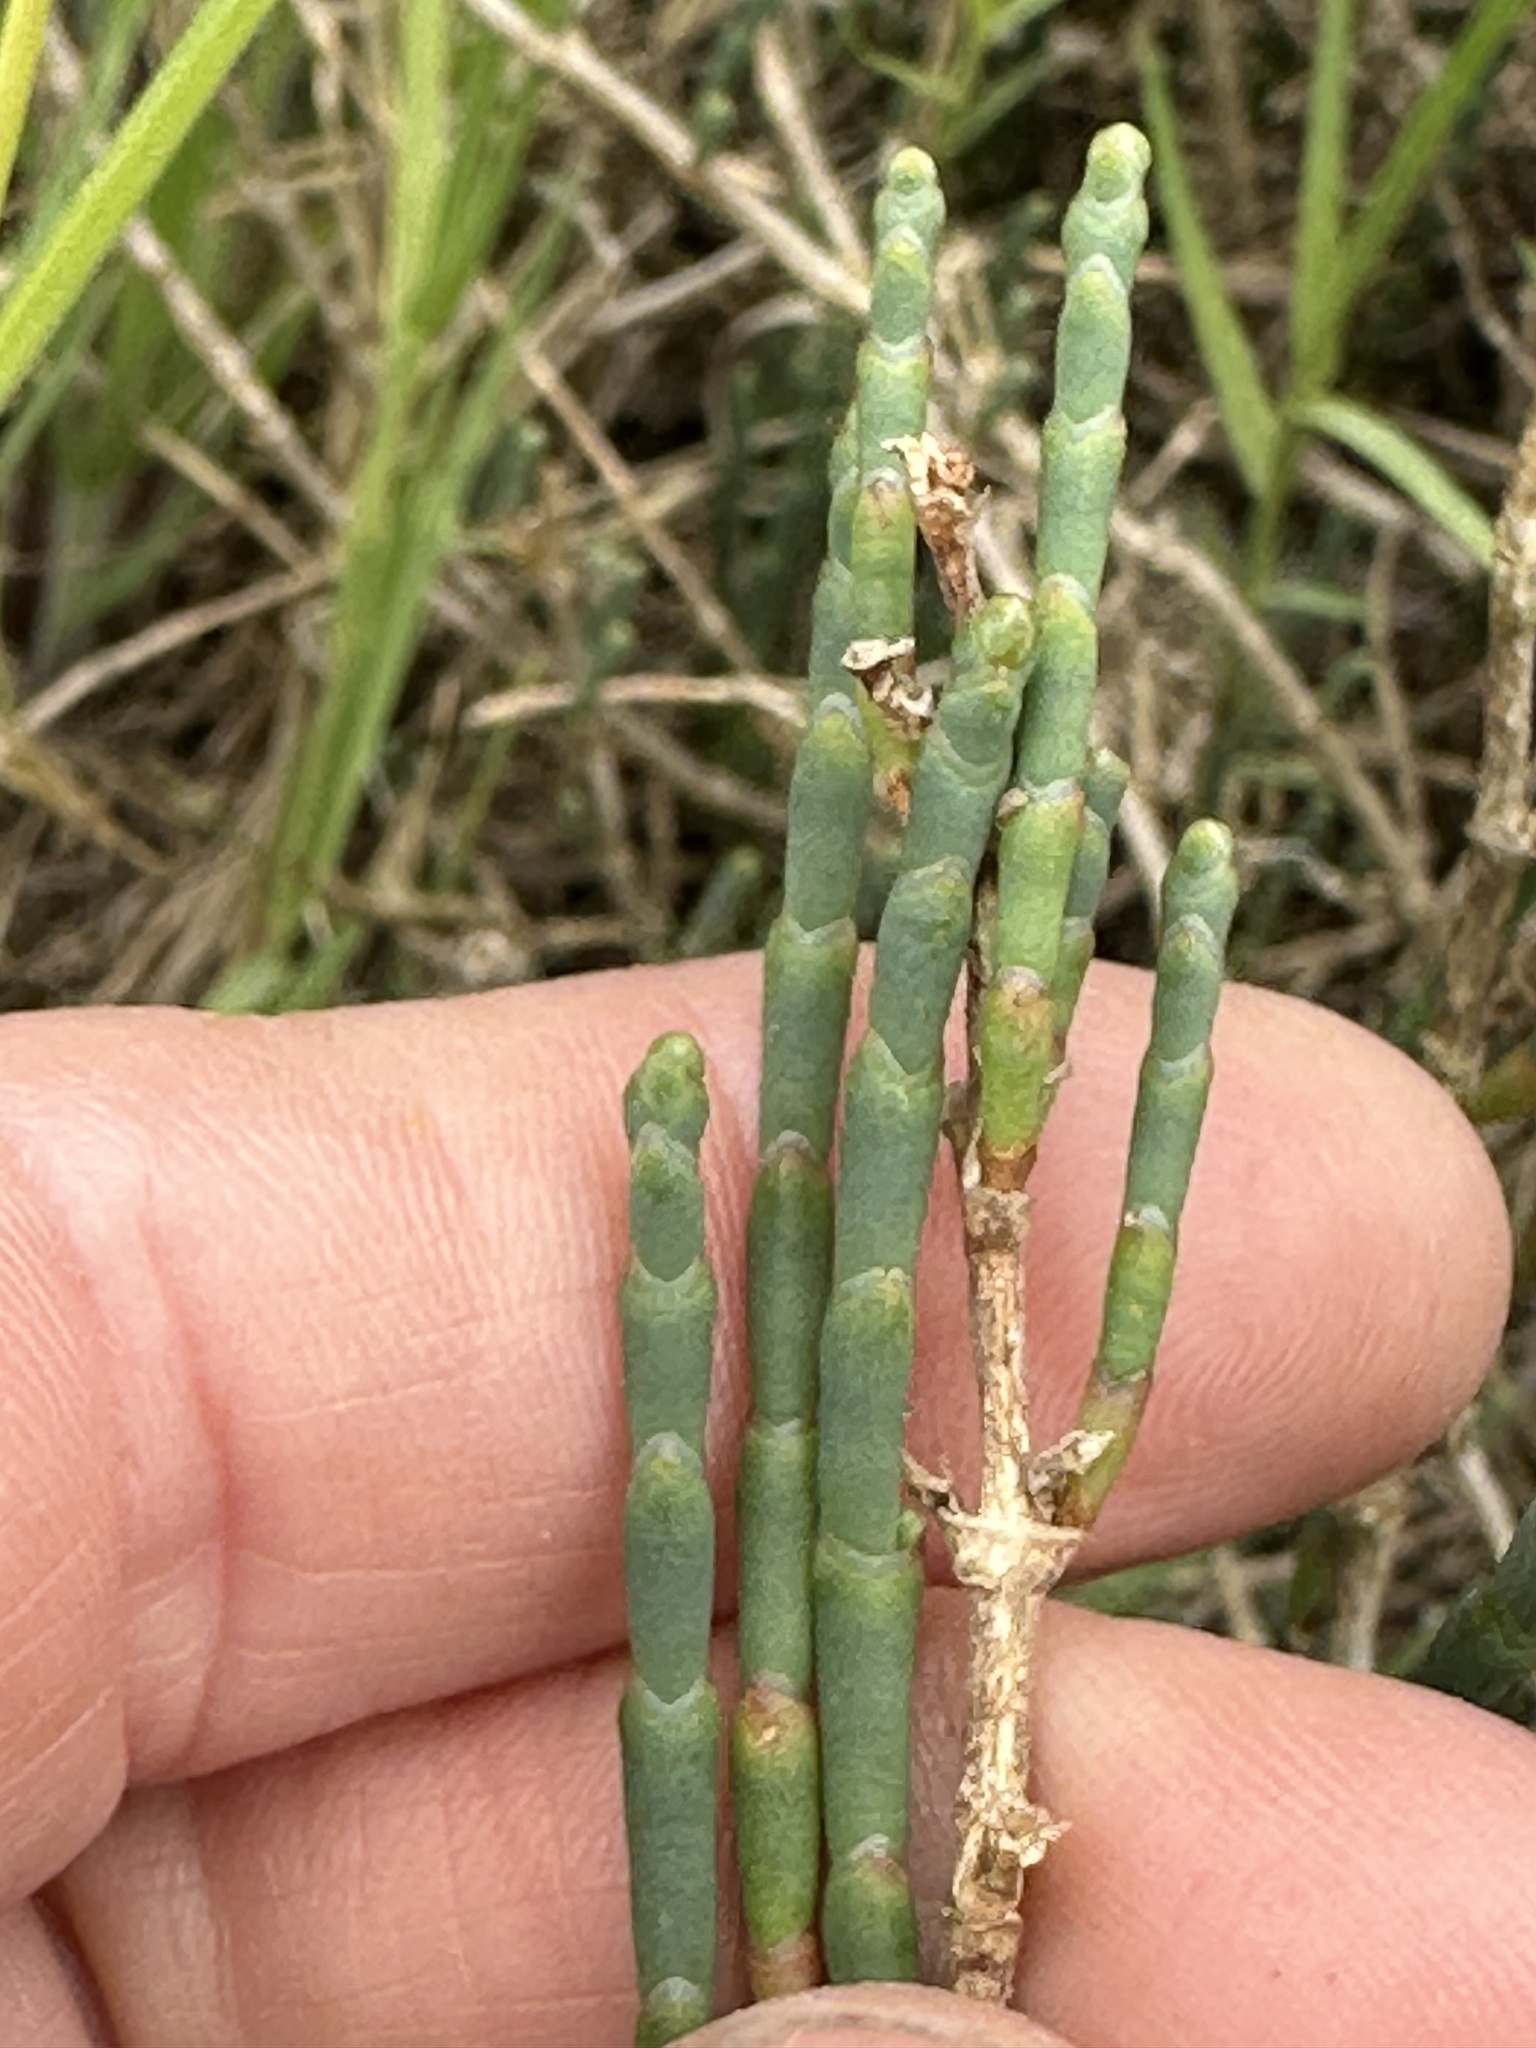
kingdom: Plantae
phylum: Tracheophyta
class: Magnoliopsida
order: Caryophyllales
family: Amaranthaceae
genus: Salicornia
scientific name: Salicornia pacifica
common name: Pacific glasswort
